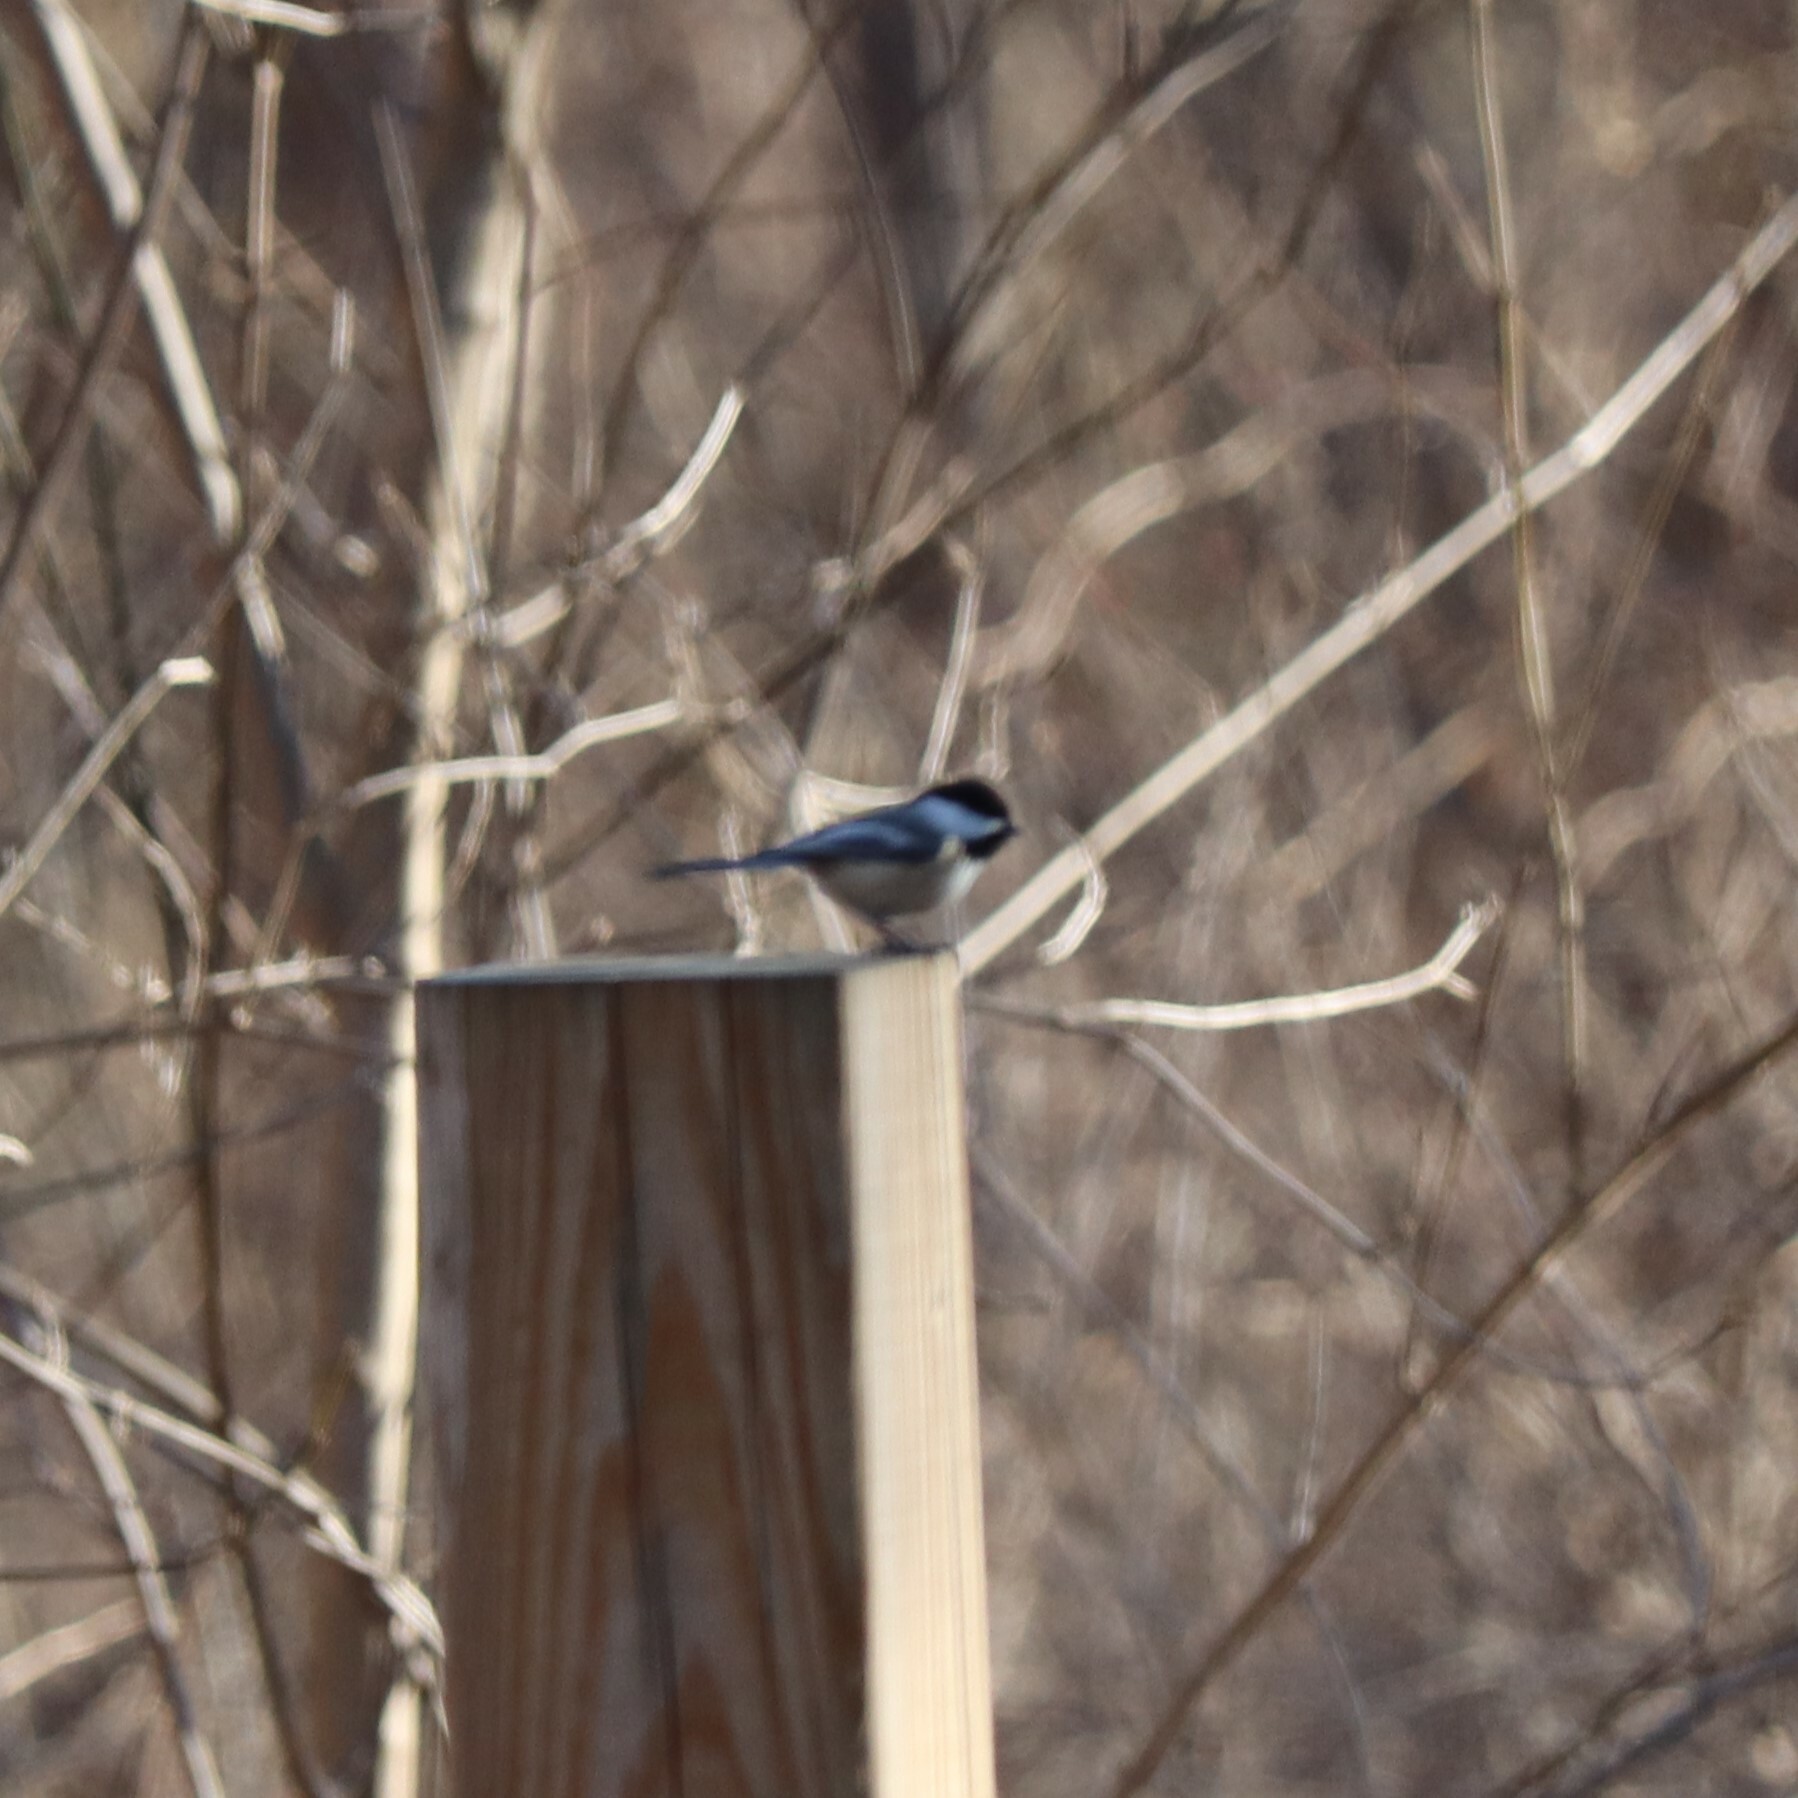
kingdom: Animalia
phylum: Chordata
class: Aves
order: Passeriformes
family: Paridae
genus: Poecile
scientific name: Poecile atricapillus
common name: Black-capped chickadee
